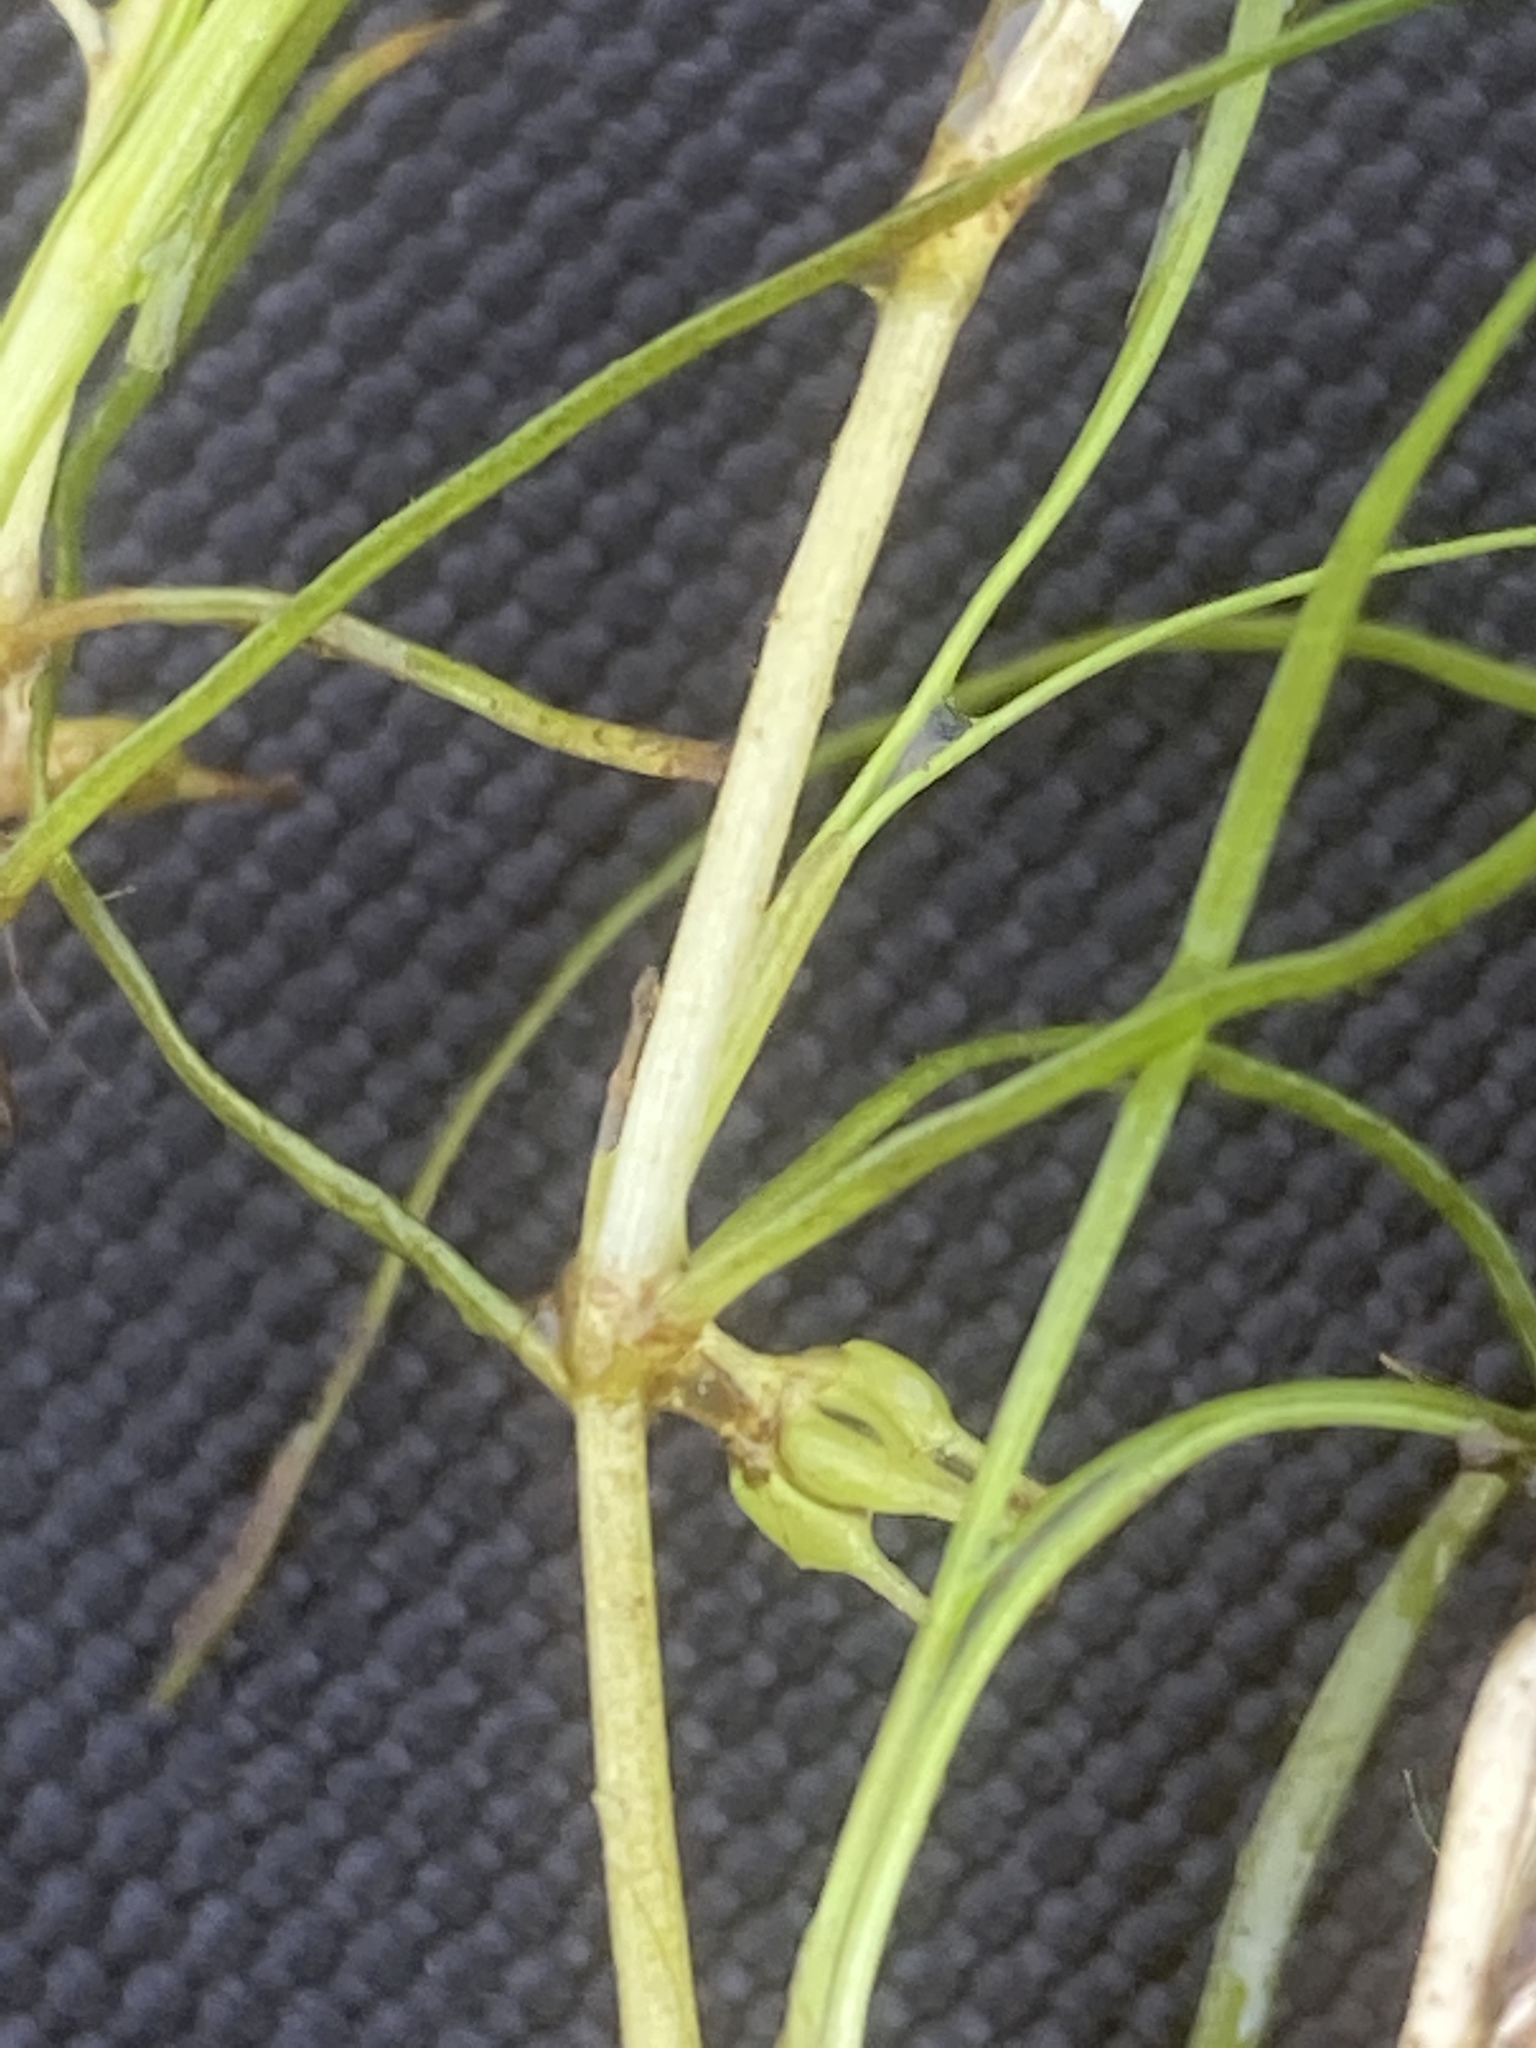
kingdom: Plantae
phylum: Tracheophyta
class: Liliopsida
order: Alismatales
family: Potamogetonaceae
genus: Zannichellia
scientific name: Zannichellia palustris
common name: Horned pondweed
